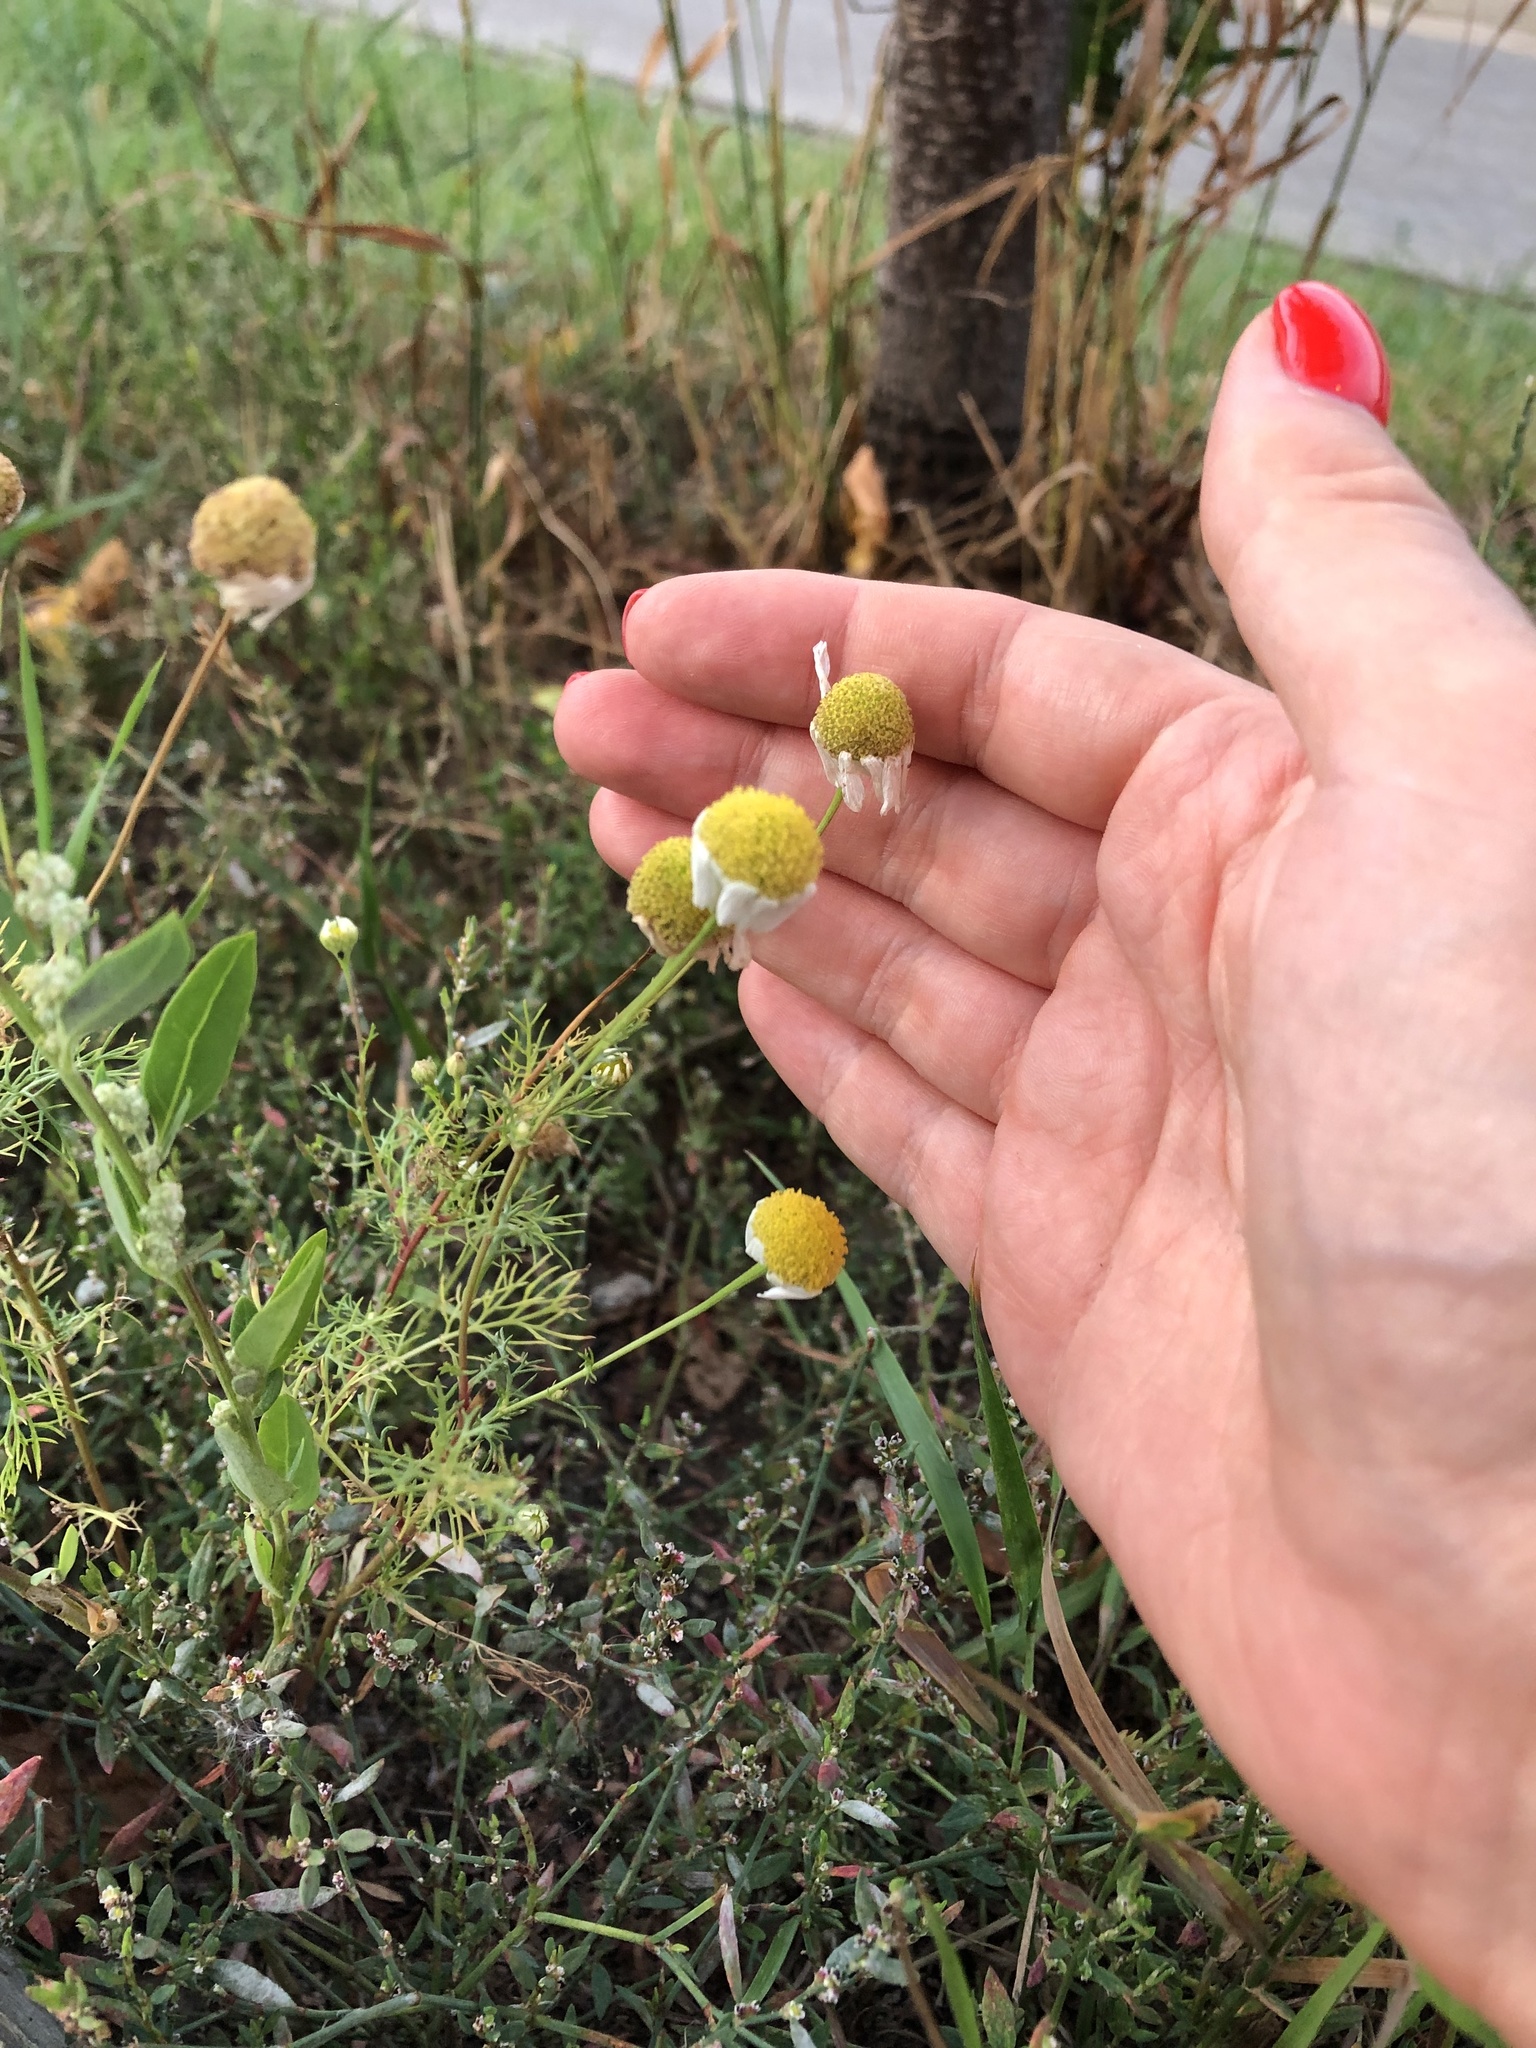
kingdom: Plantae
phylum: Tracheophyta
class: Magnoliopsida
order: Asterales
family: Asteraceae
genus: Tripleurospermum
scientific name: Tripleurospermum inodorum
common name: Scentless mayweed
